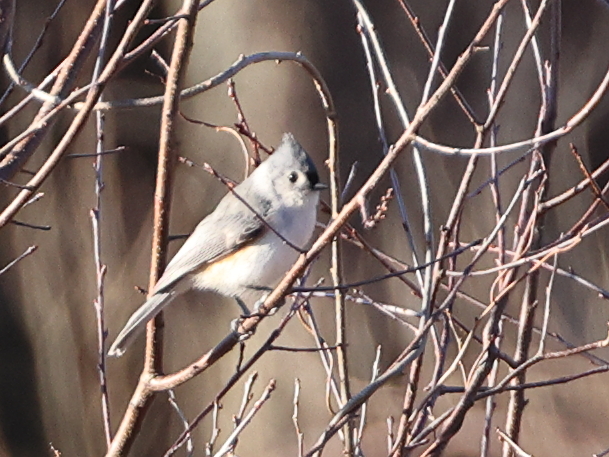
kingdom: Animalia
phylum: Chordata
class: Aves
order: Passeriformes
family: Paridae
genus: Baeolophus
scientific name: Baeolophus bicolor
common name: Tufted titmouse
